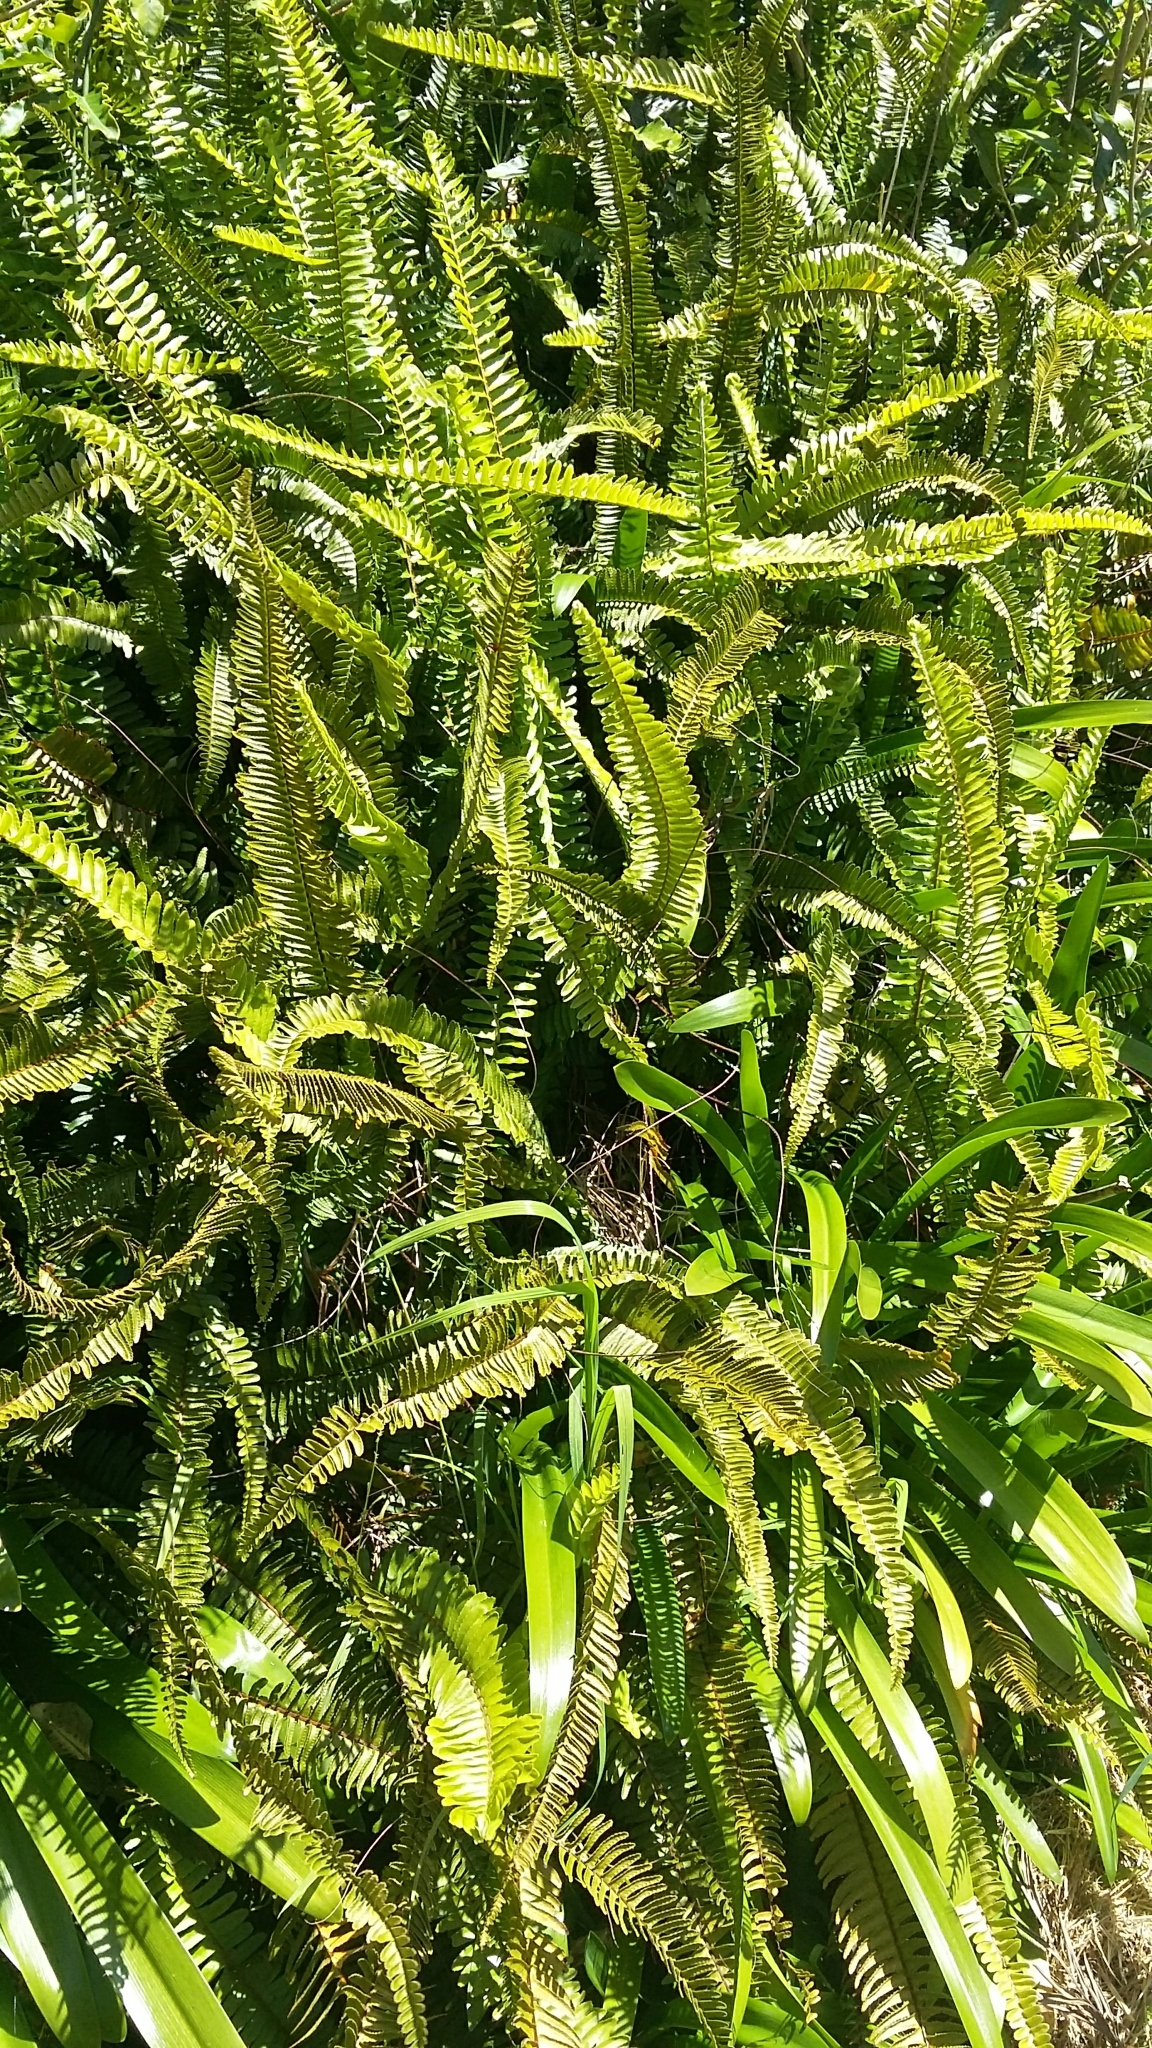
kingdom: Plantae
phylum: Tracheophyta
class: Polypodiopsida
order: Polypodiales
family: Nephrolepidaceae
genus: Nephrolepis
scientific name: Nephrolepis cordifolia
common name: Narrow swordfern
